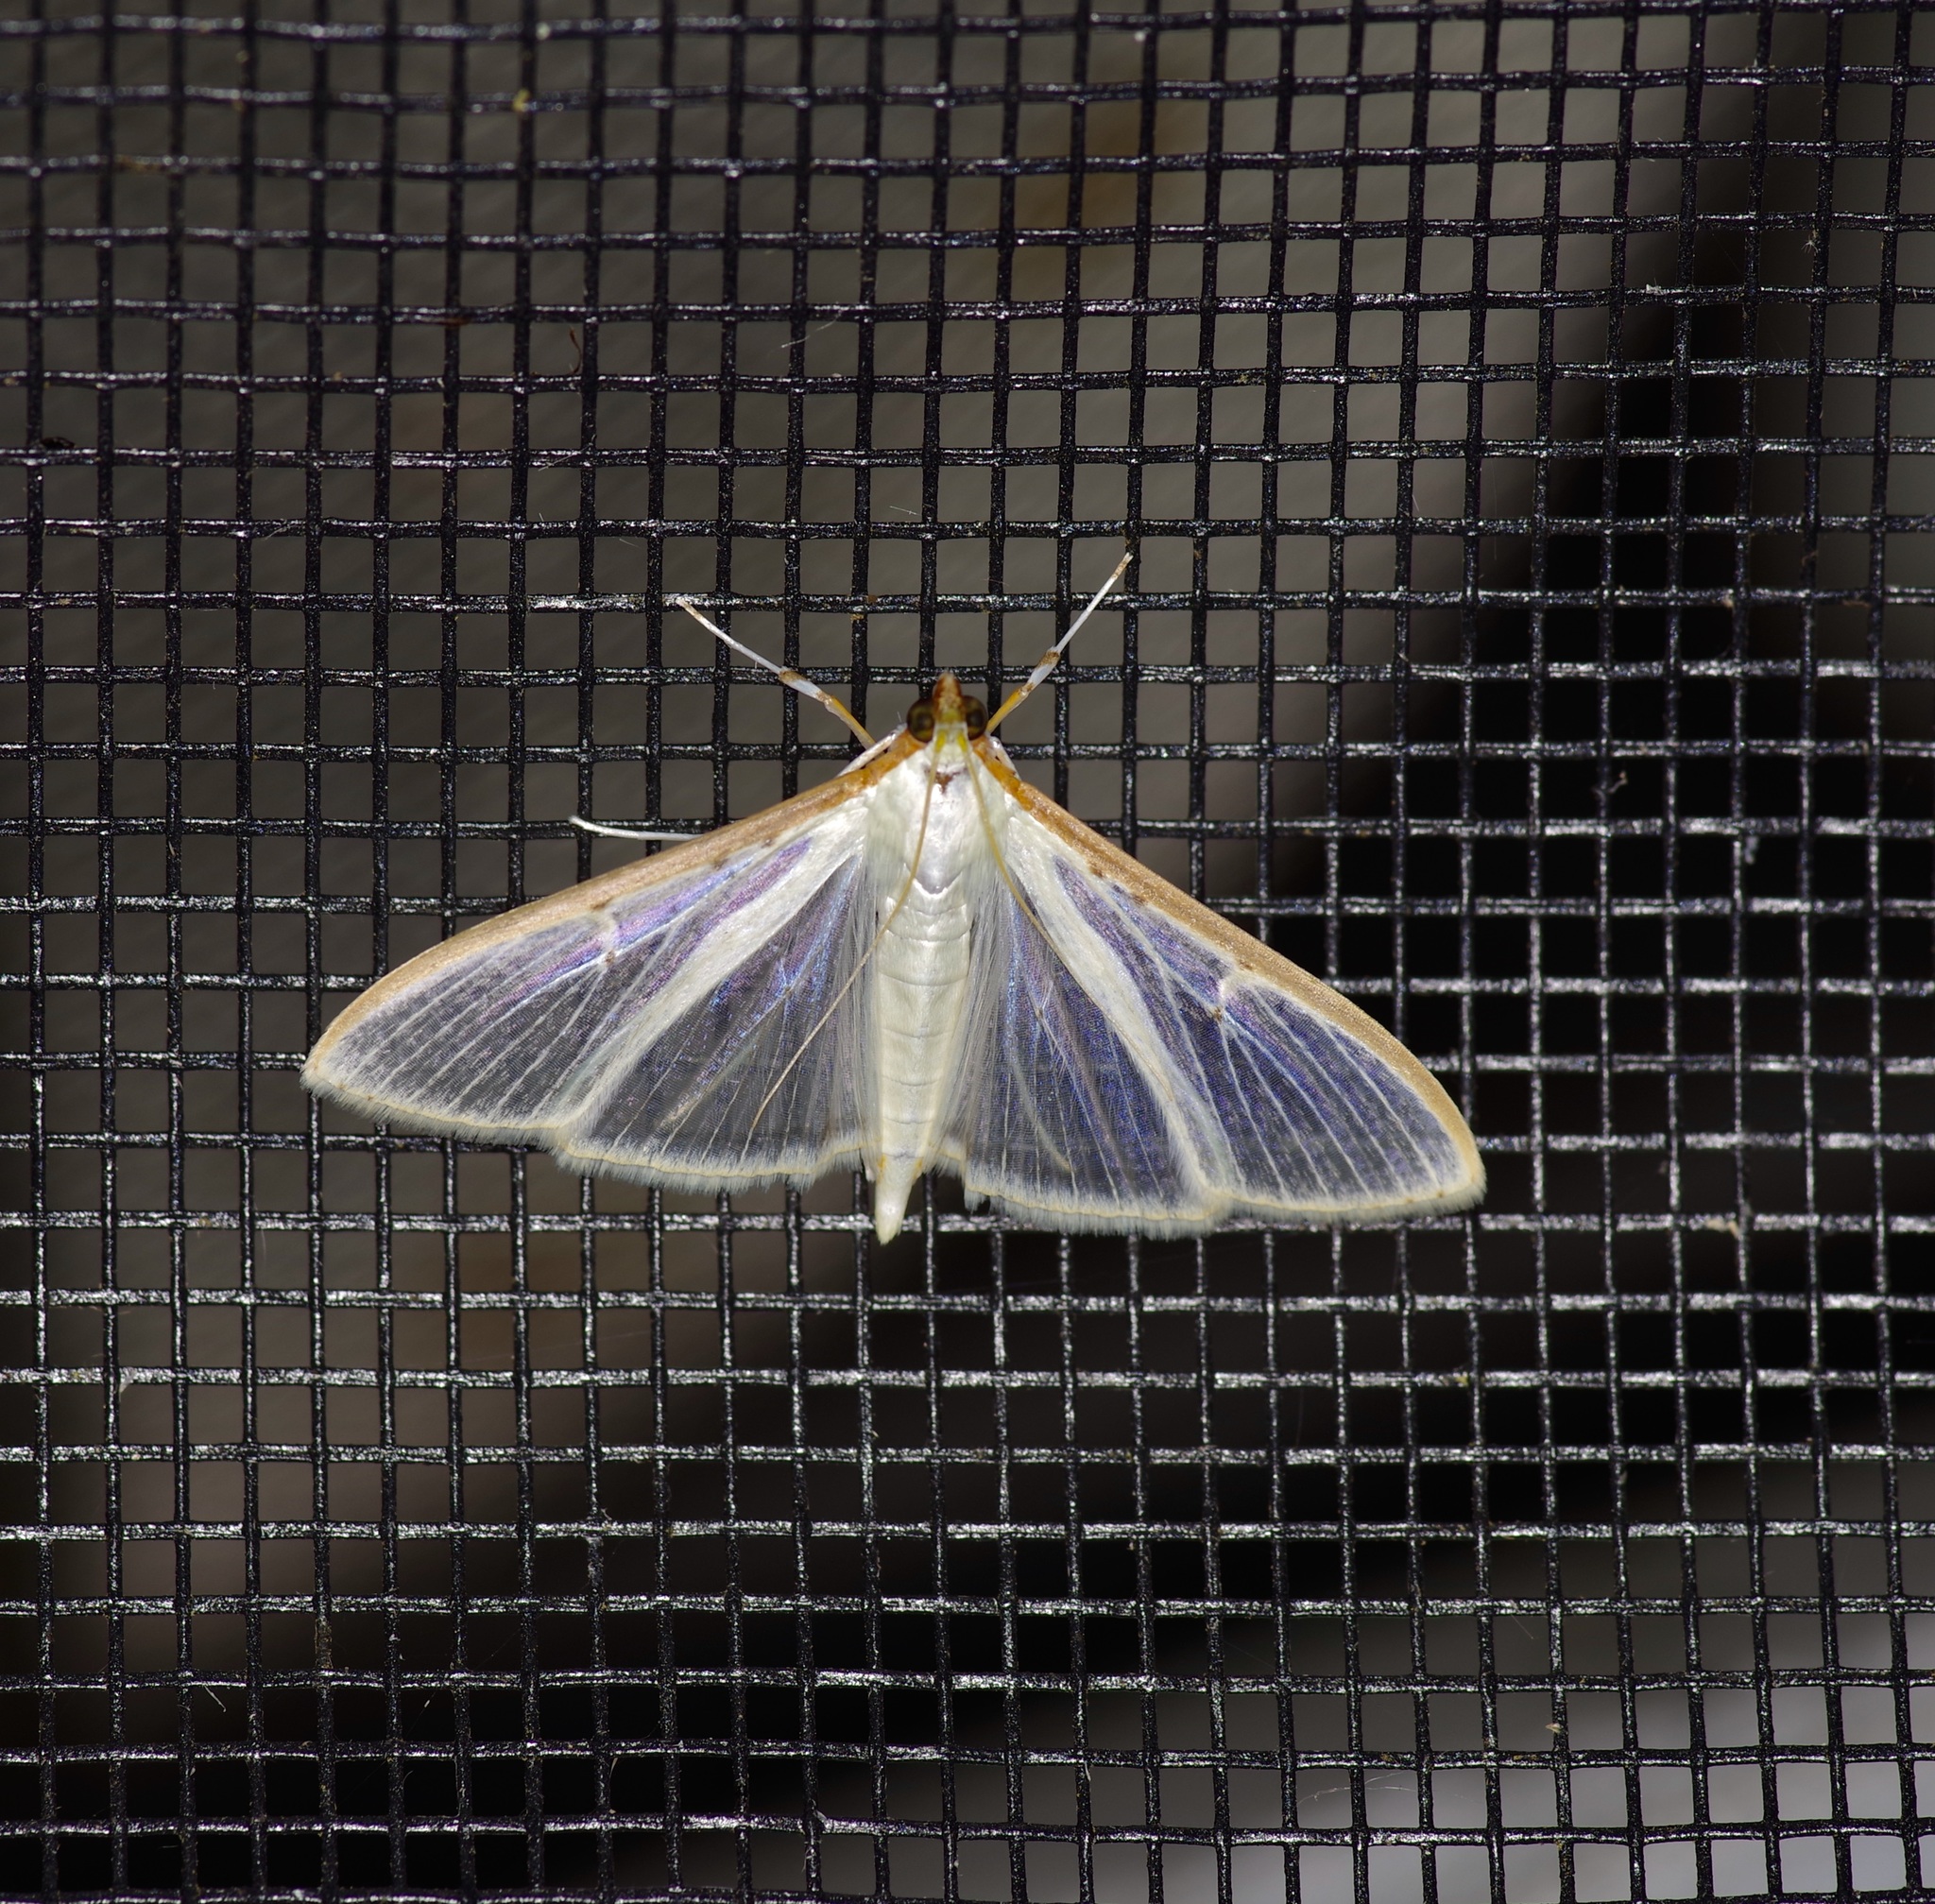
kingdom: Animalia
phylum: Arthropoda
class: Insecta
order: Lepidoptera
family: Crambidae
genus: Palpita
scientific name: Palpita quadristigmalis
